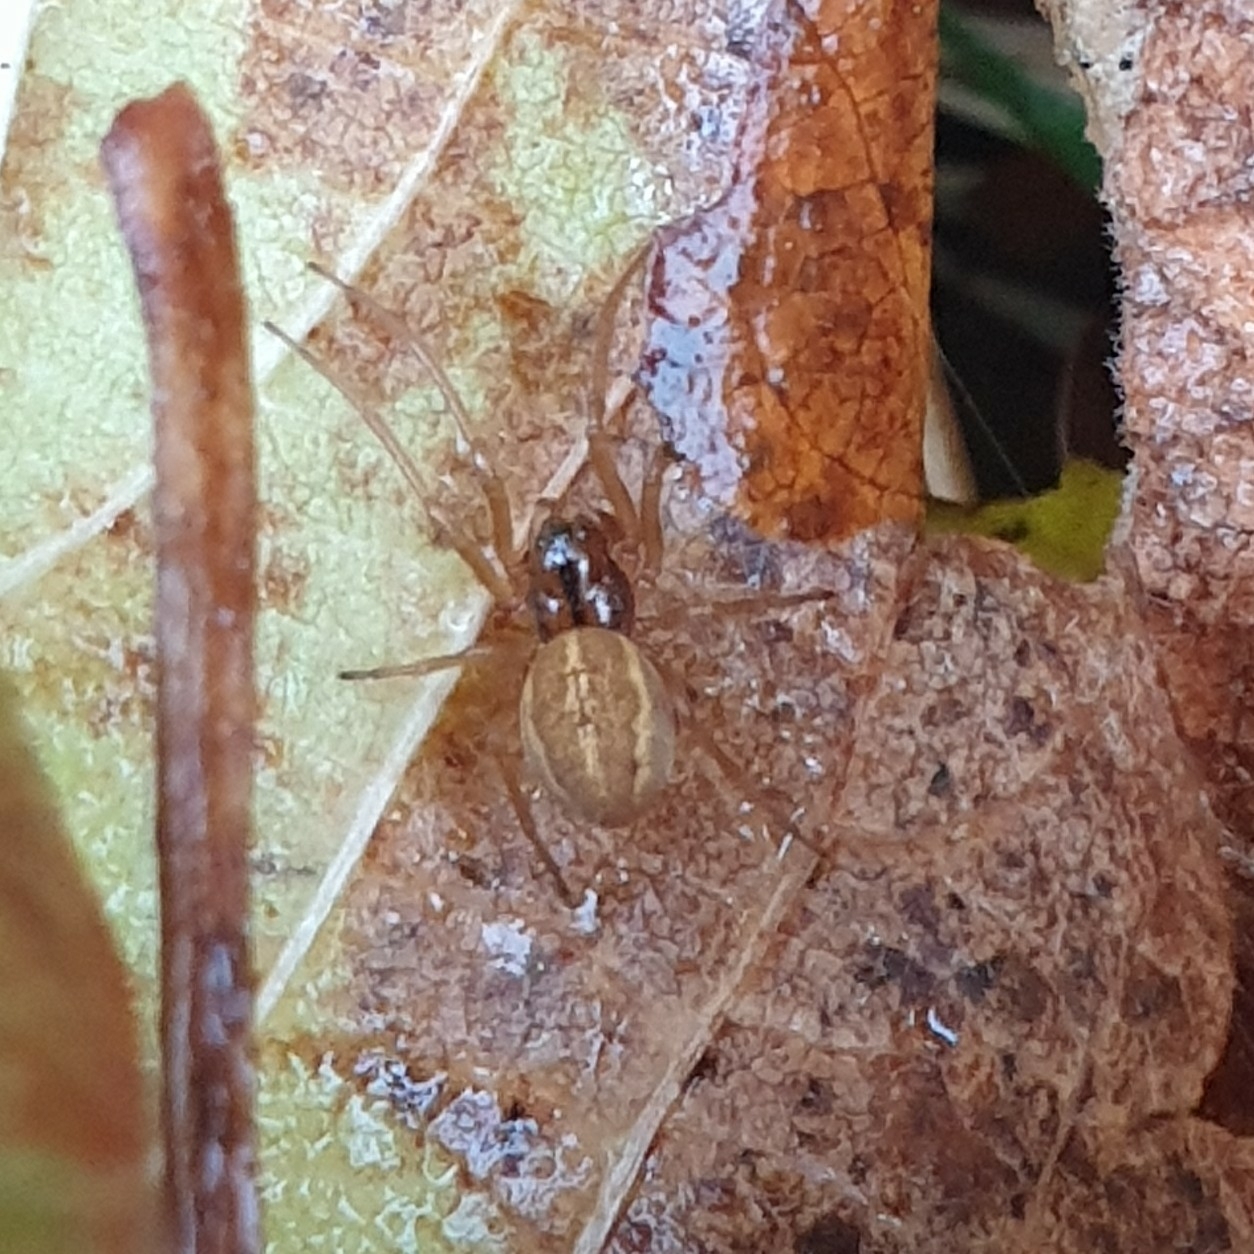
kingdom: Animalia
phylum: Arthropoda
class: Arachnida
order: Araneae
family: Tetragnathidae
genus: Pachygnatha
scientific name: Pachygnatha clercki
